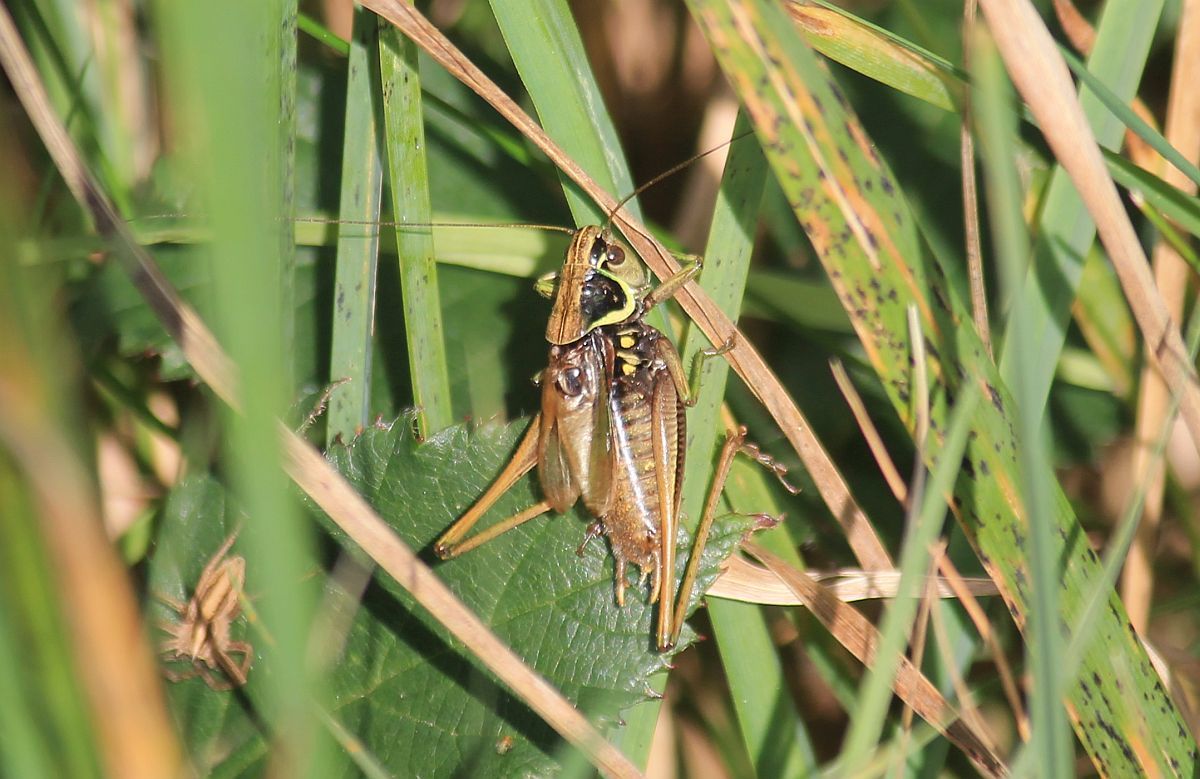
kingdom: Animalia
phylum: Arthropoda
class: Insecta
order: Orthoptera
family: Tettigoniidae
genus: Roeseliana
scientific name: Roeseliana roeselii
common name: Roesel's bush cricket
